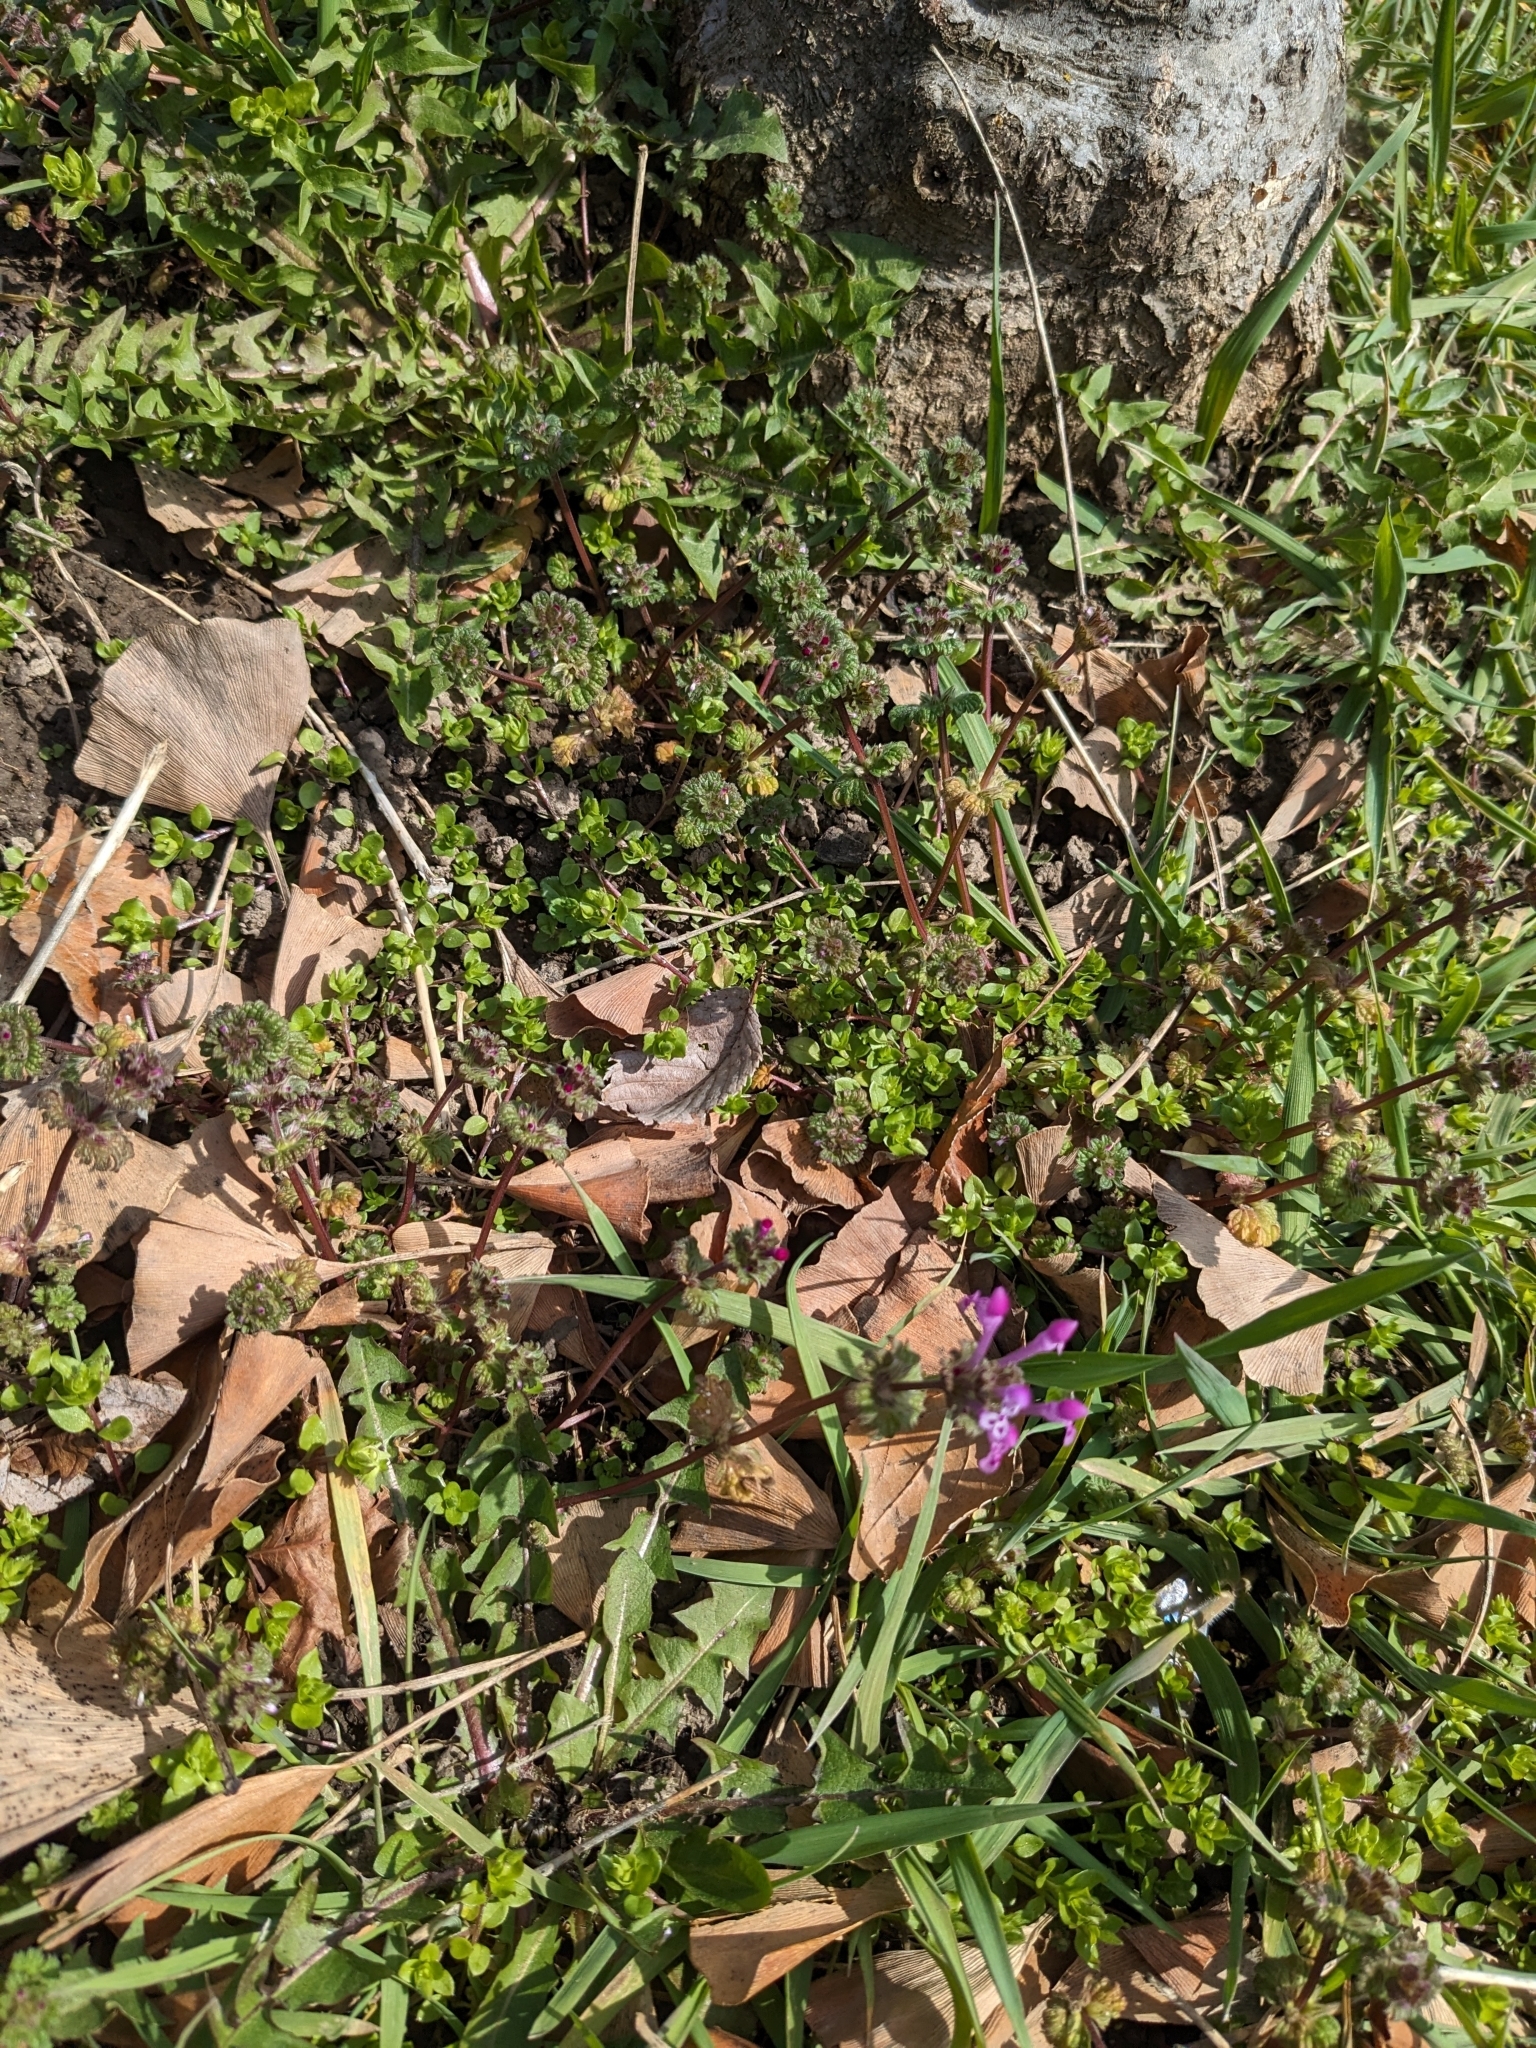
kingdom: Plantae
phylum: Tracheophyta
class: Magnoliopsida
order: Lamiales
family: Lamiaceae
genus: Lamium
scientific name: Lamium amplexicaule
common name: Henbit dead-nettle
